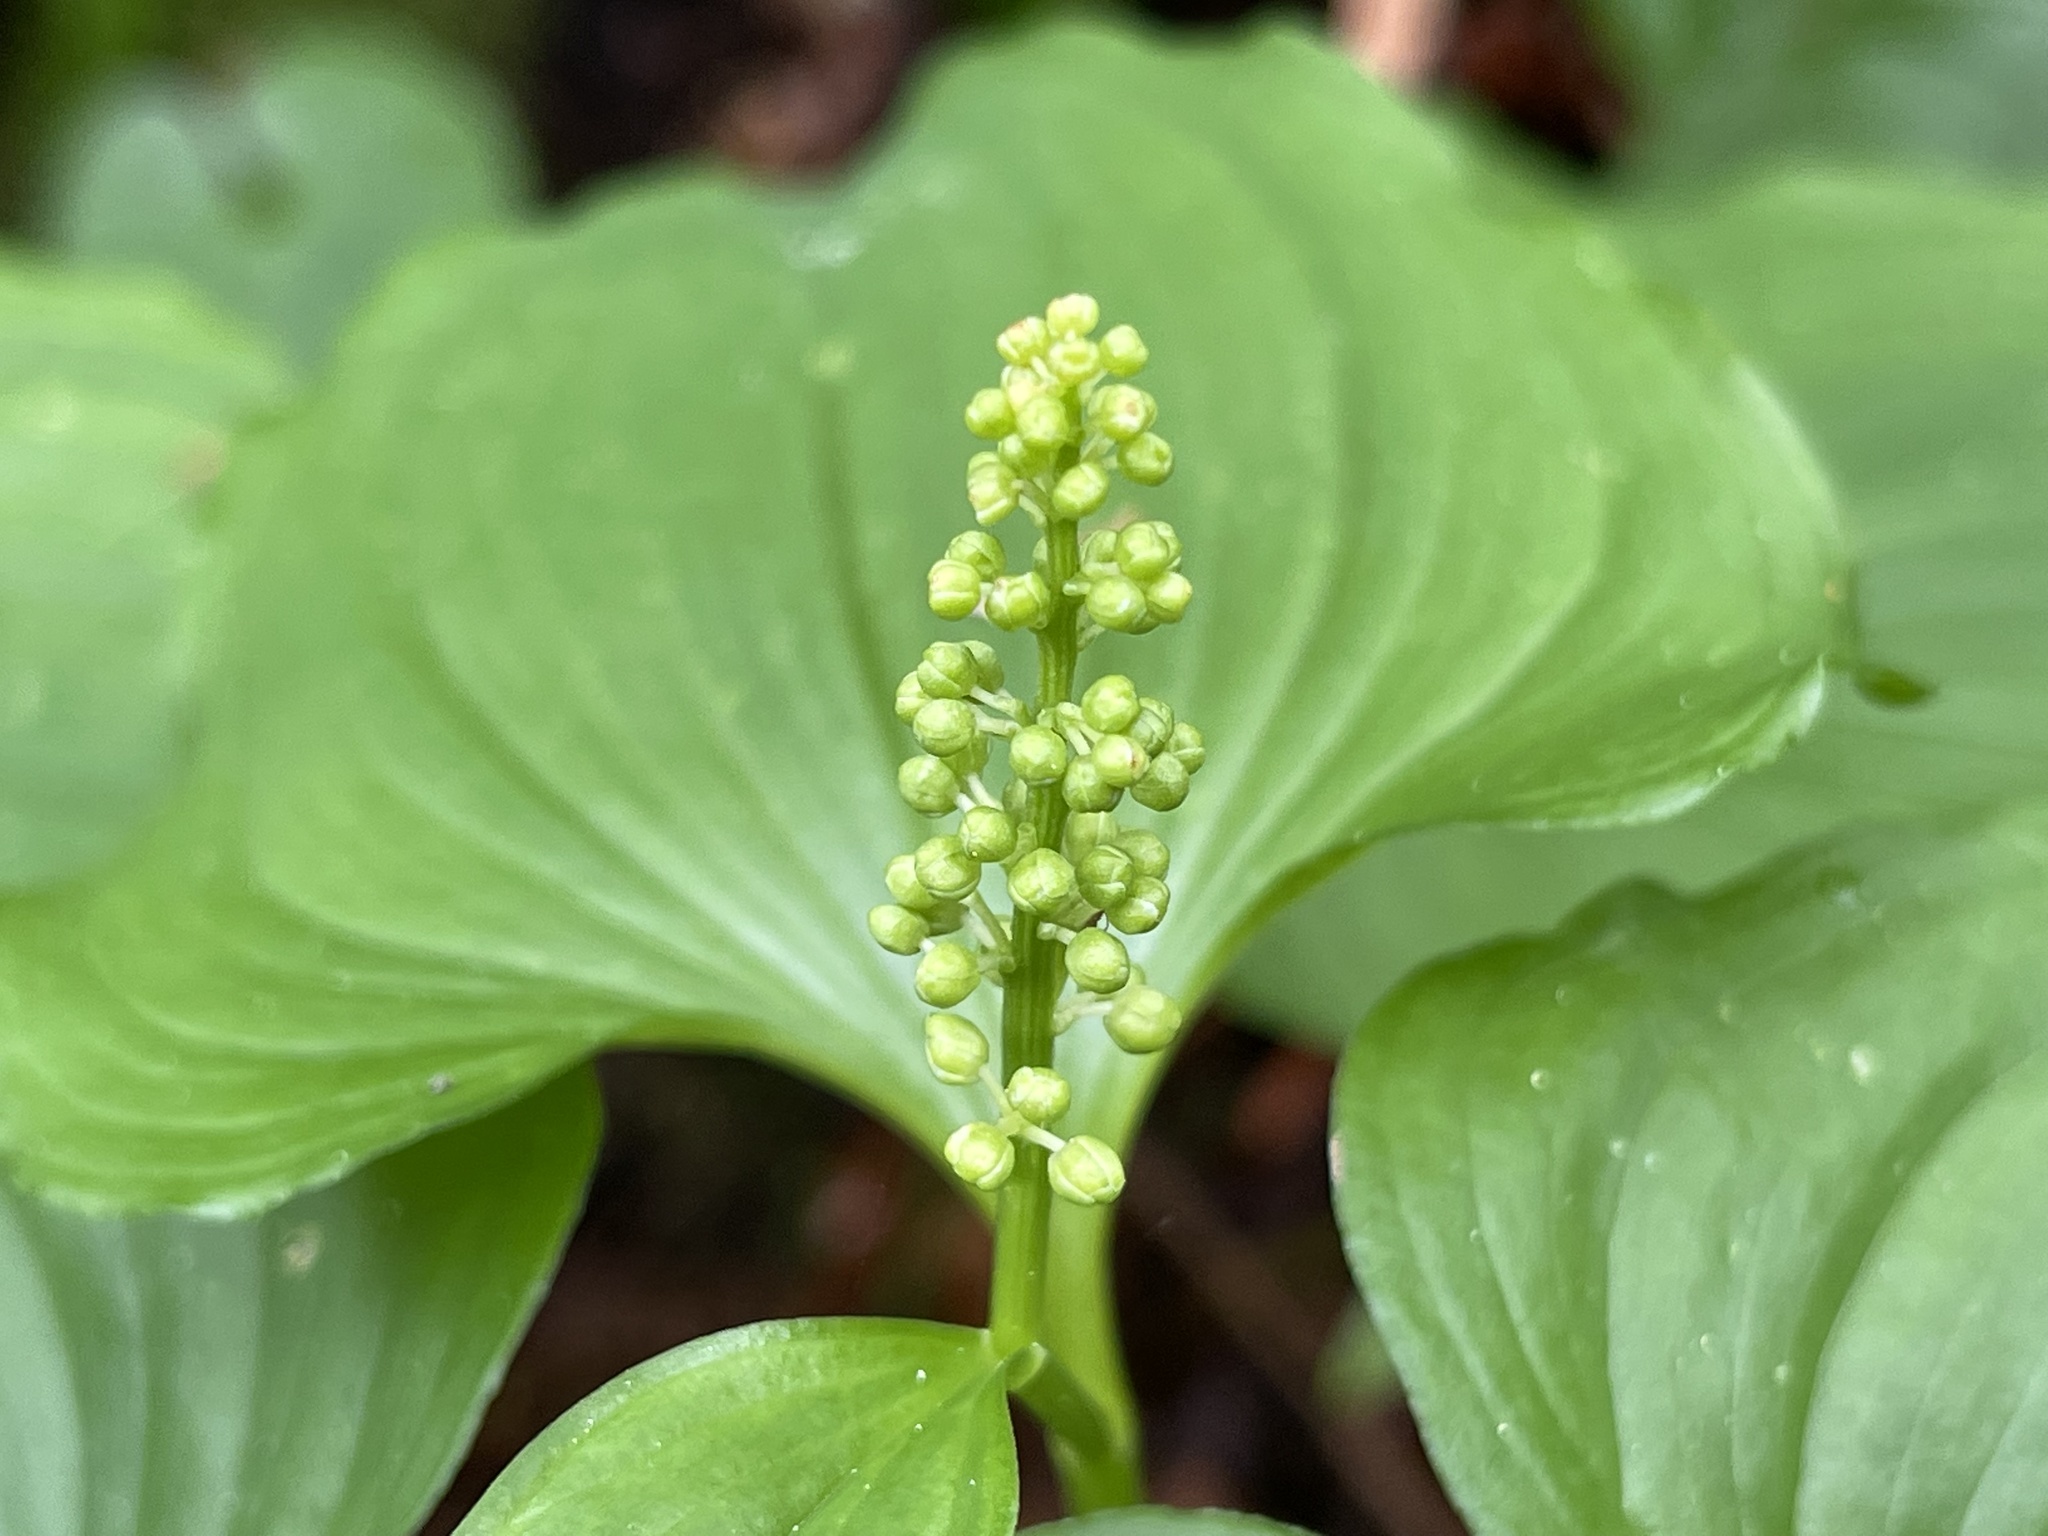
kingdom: Plantae
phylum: Tracheophyta
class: Liliopsida
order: Asparagales
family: Asparagaceae
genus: Maianthemum
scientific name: Maianthemum dilatatum
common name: False lily-of-the-valley
